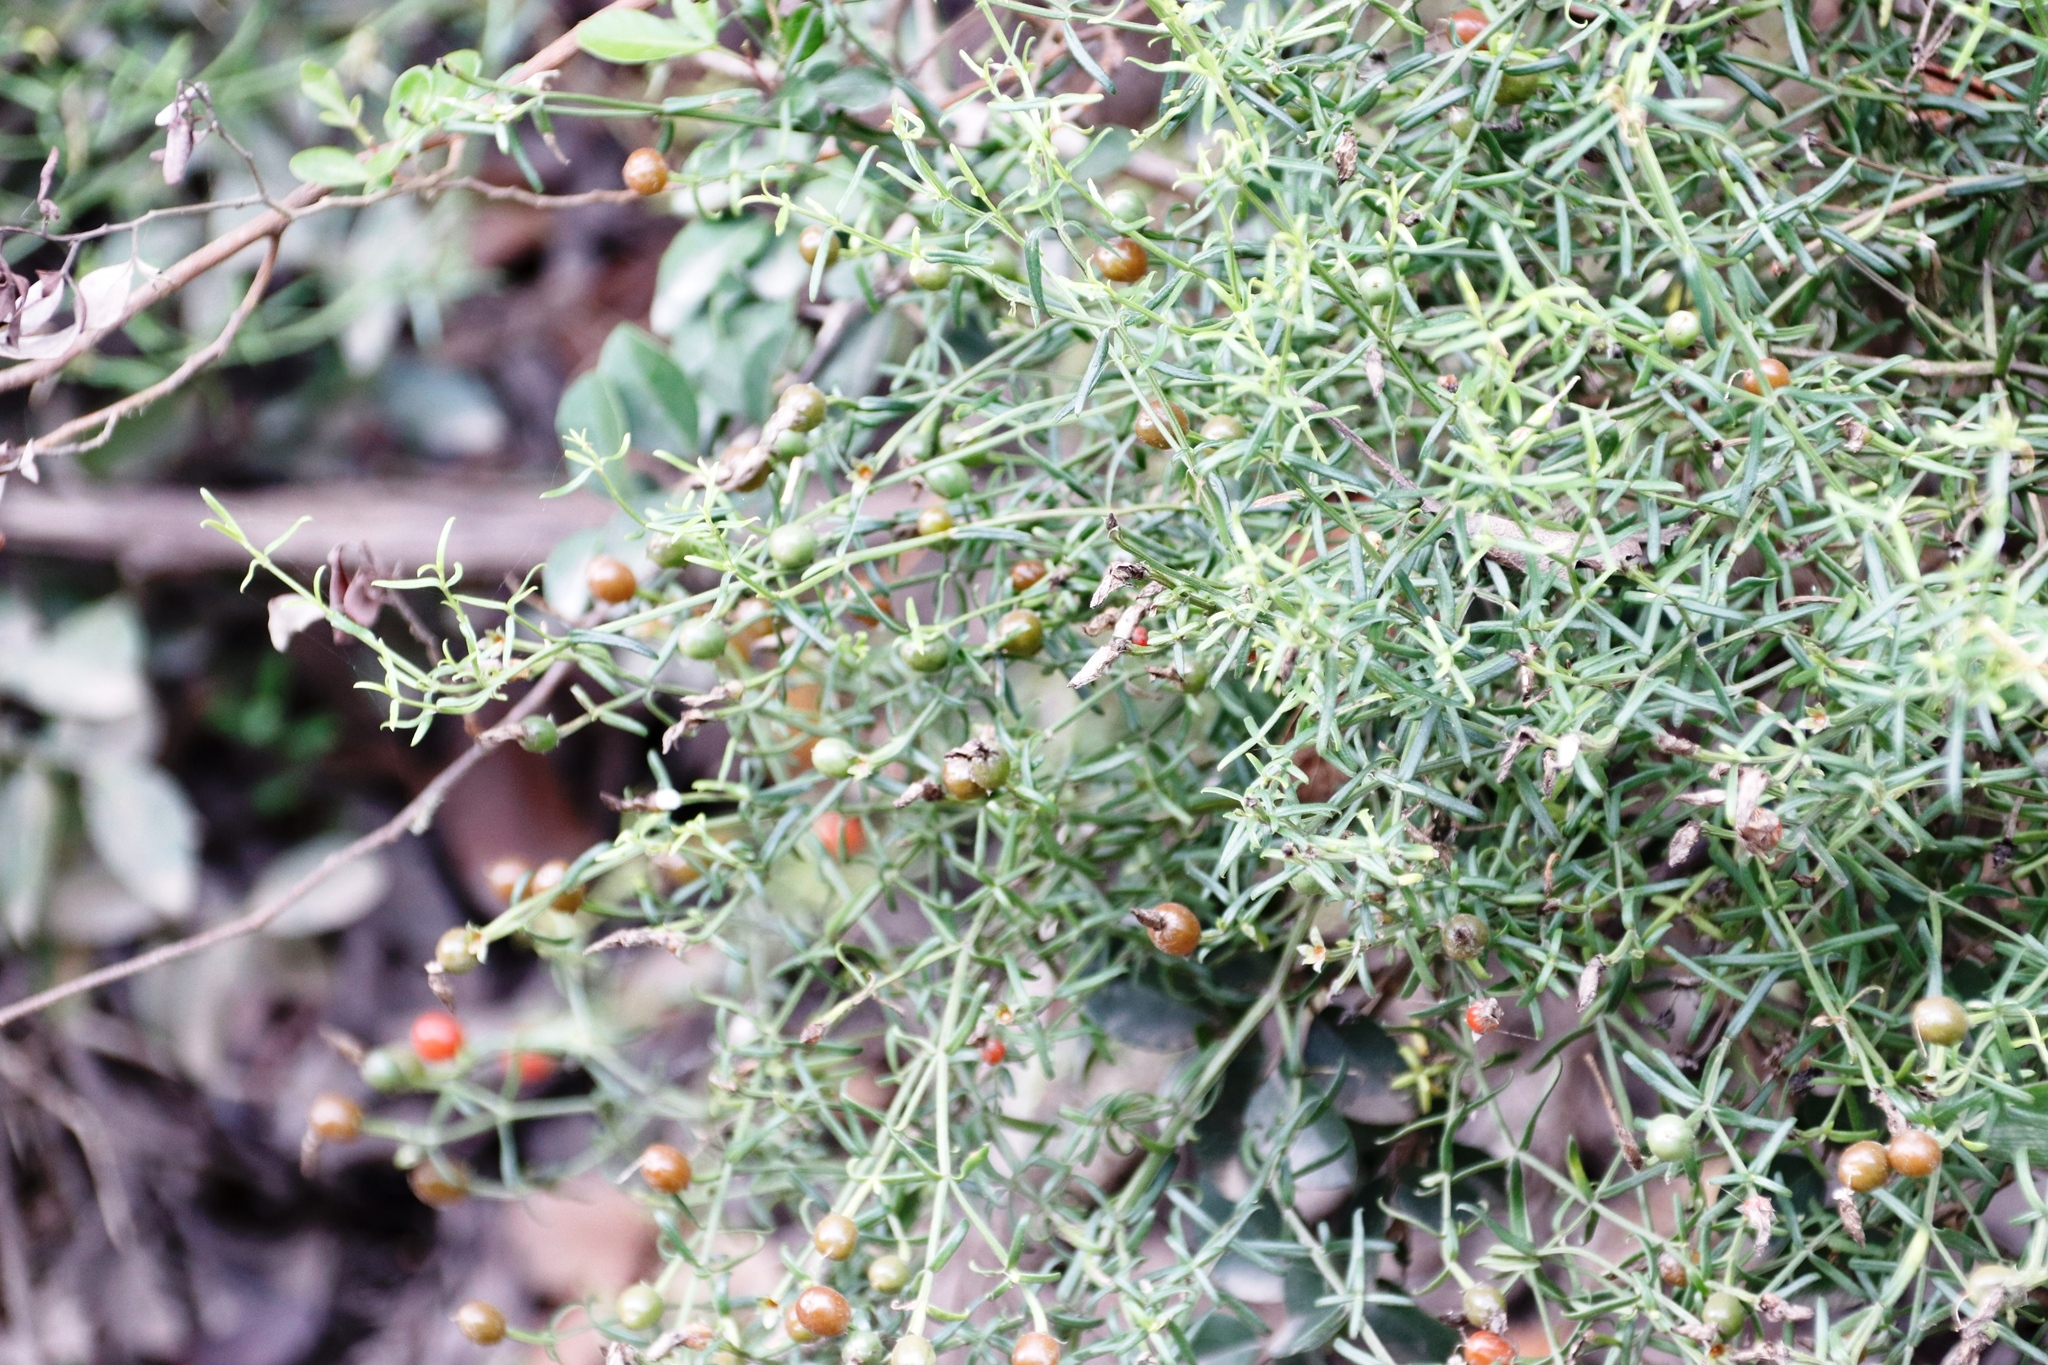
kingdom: Plantae
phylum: Tracheophyta
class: Magnoliopsida
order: Gentianales
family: Gentianaceae
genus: Chironia
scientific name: Chironia baccifera
